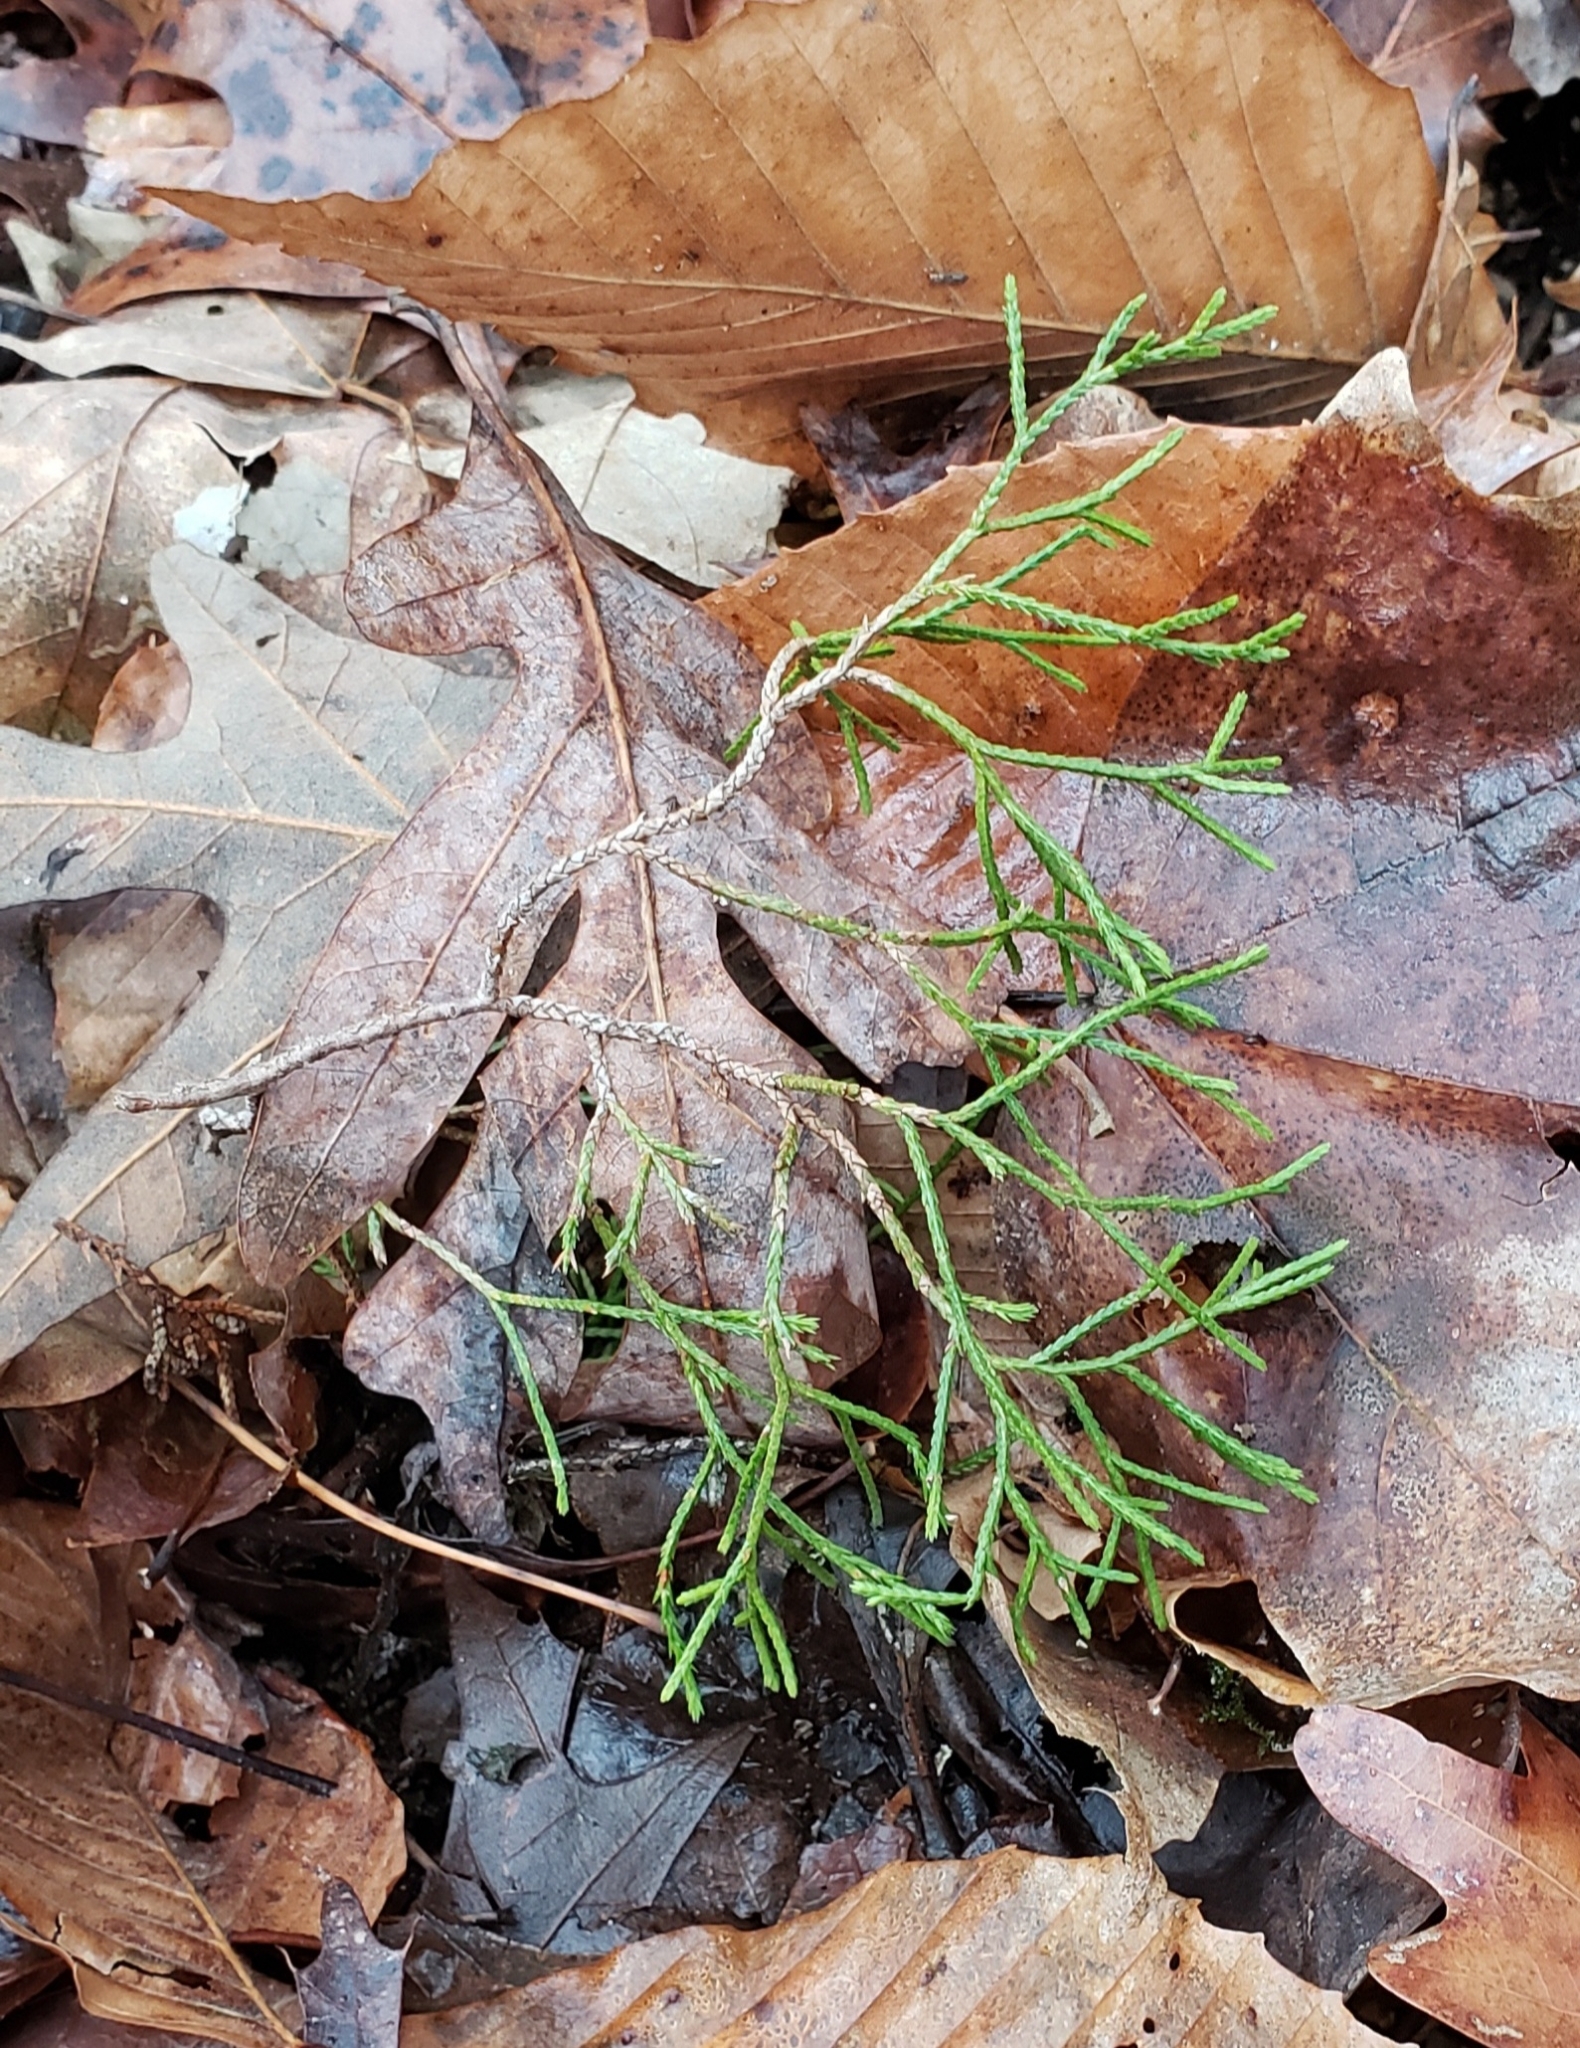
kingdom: Plantae
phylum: Tracheophyta
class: Pinopsida
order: Pinales
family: Cupressaceae
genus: Juniperus
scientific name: Juniperus virginiana
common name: Red juniper
